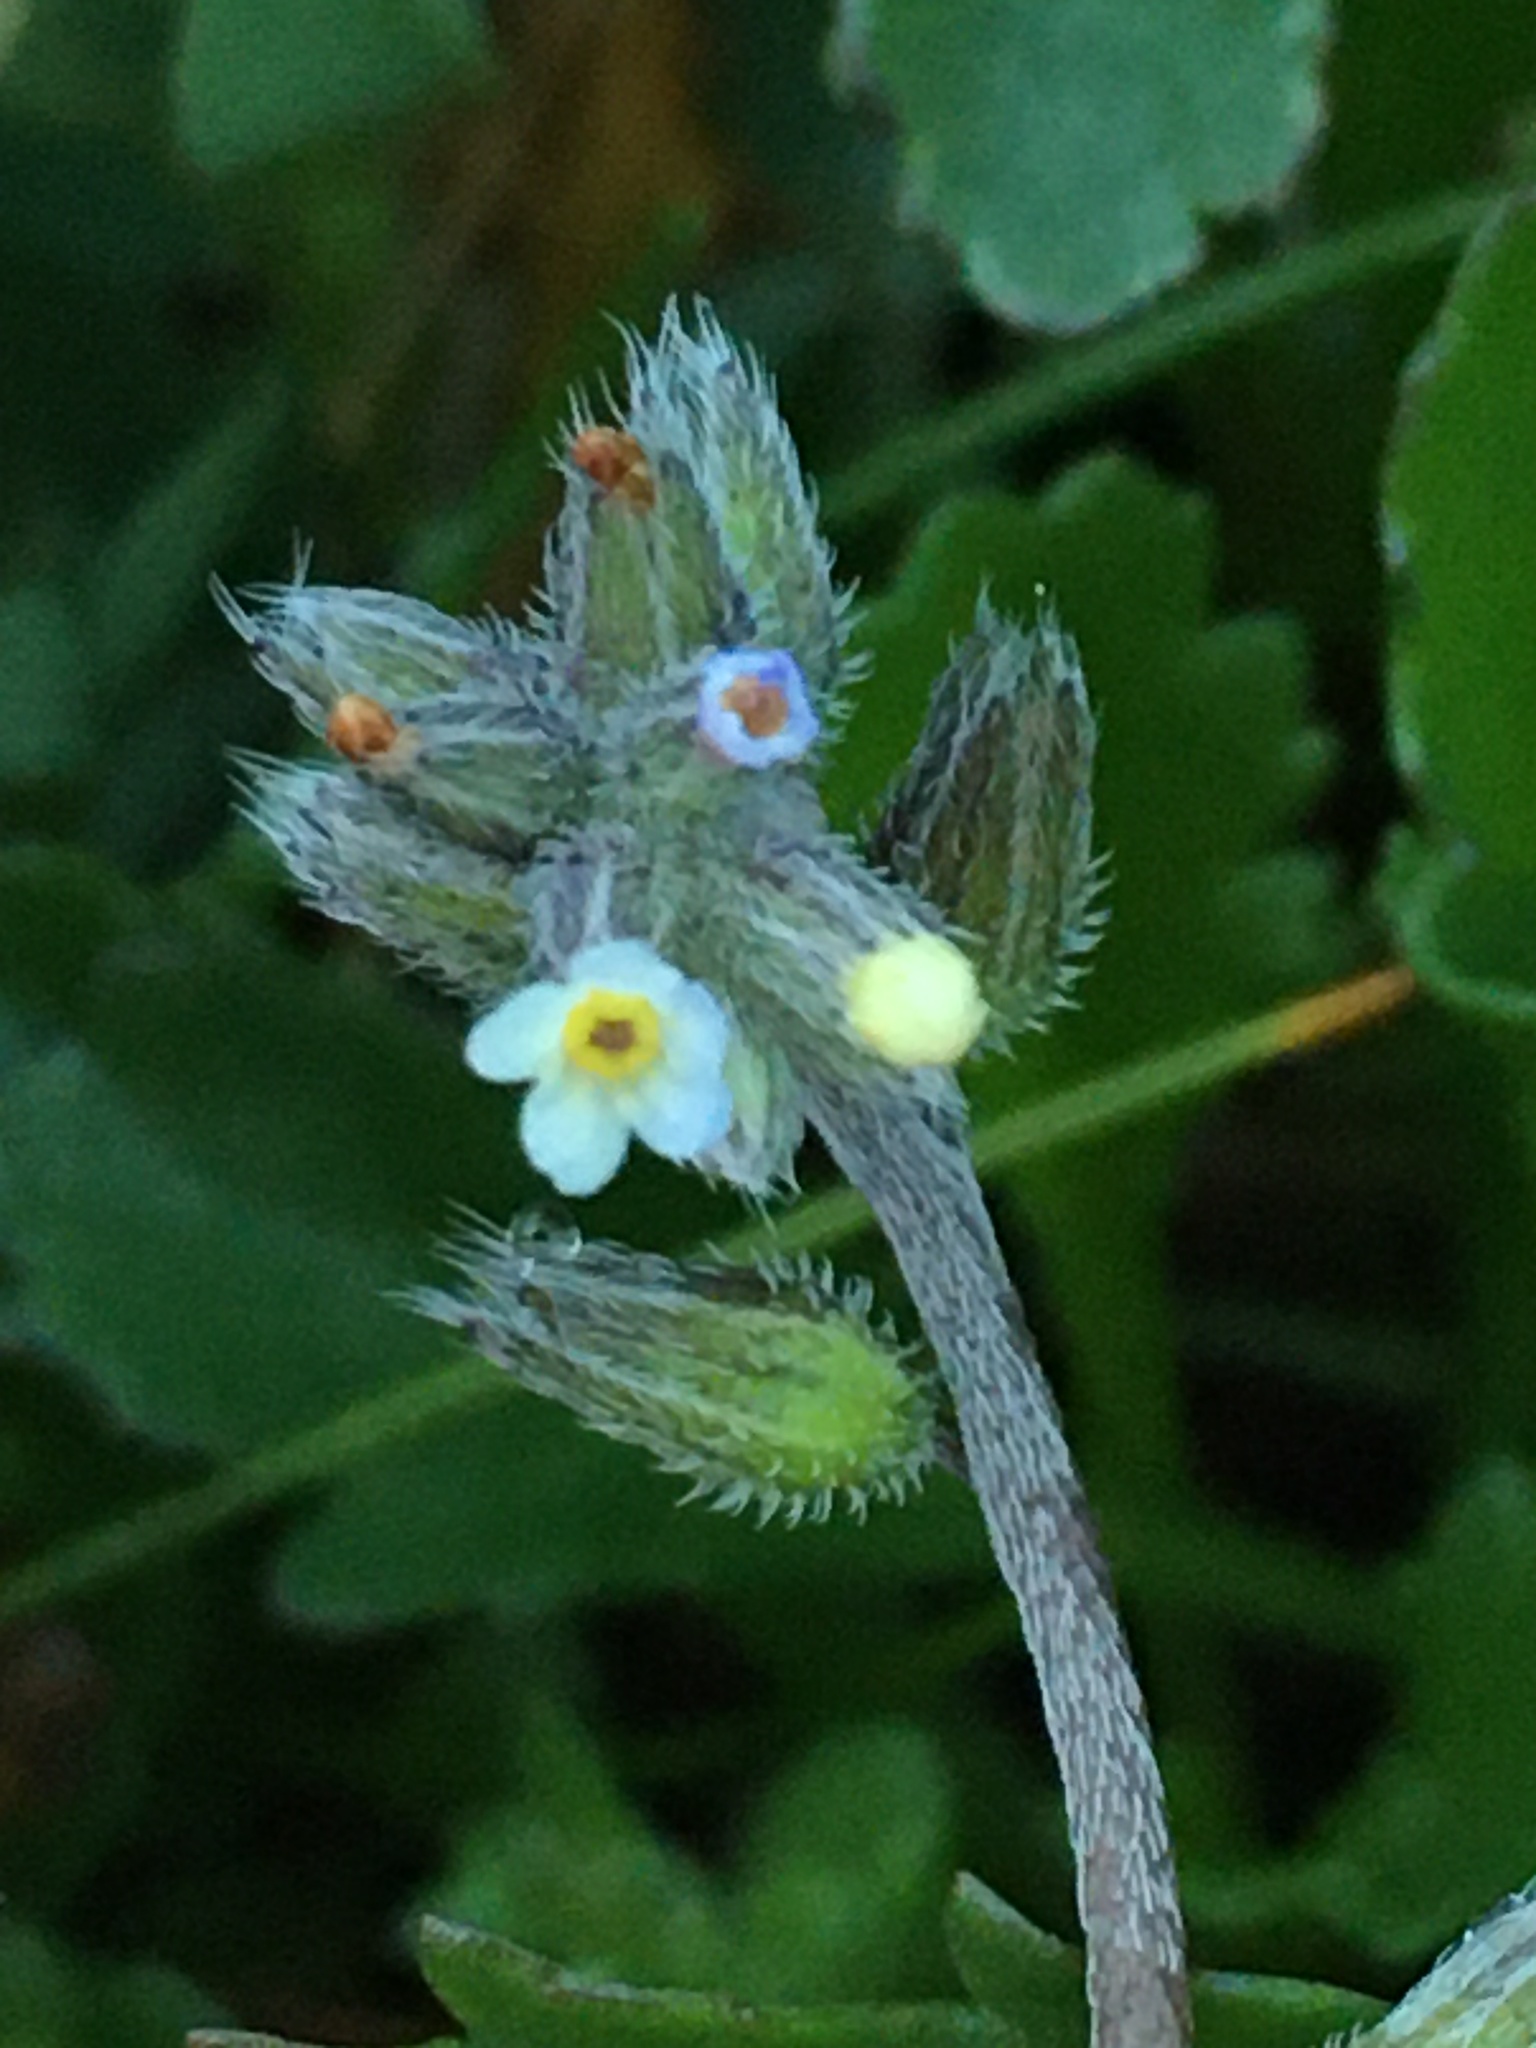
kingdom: Plantae
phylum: Tracheophyta
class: Magnoliopsida
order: Boraginales
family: Boraginaceae
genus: Myosotis
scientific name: Myosotis discolor
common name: Changing forget-me-not
